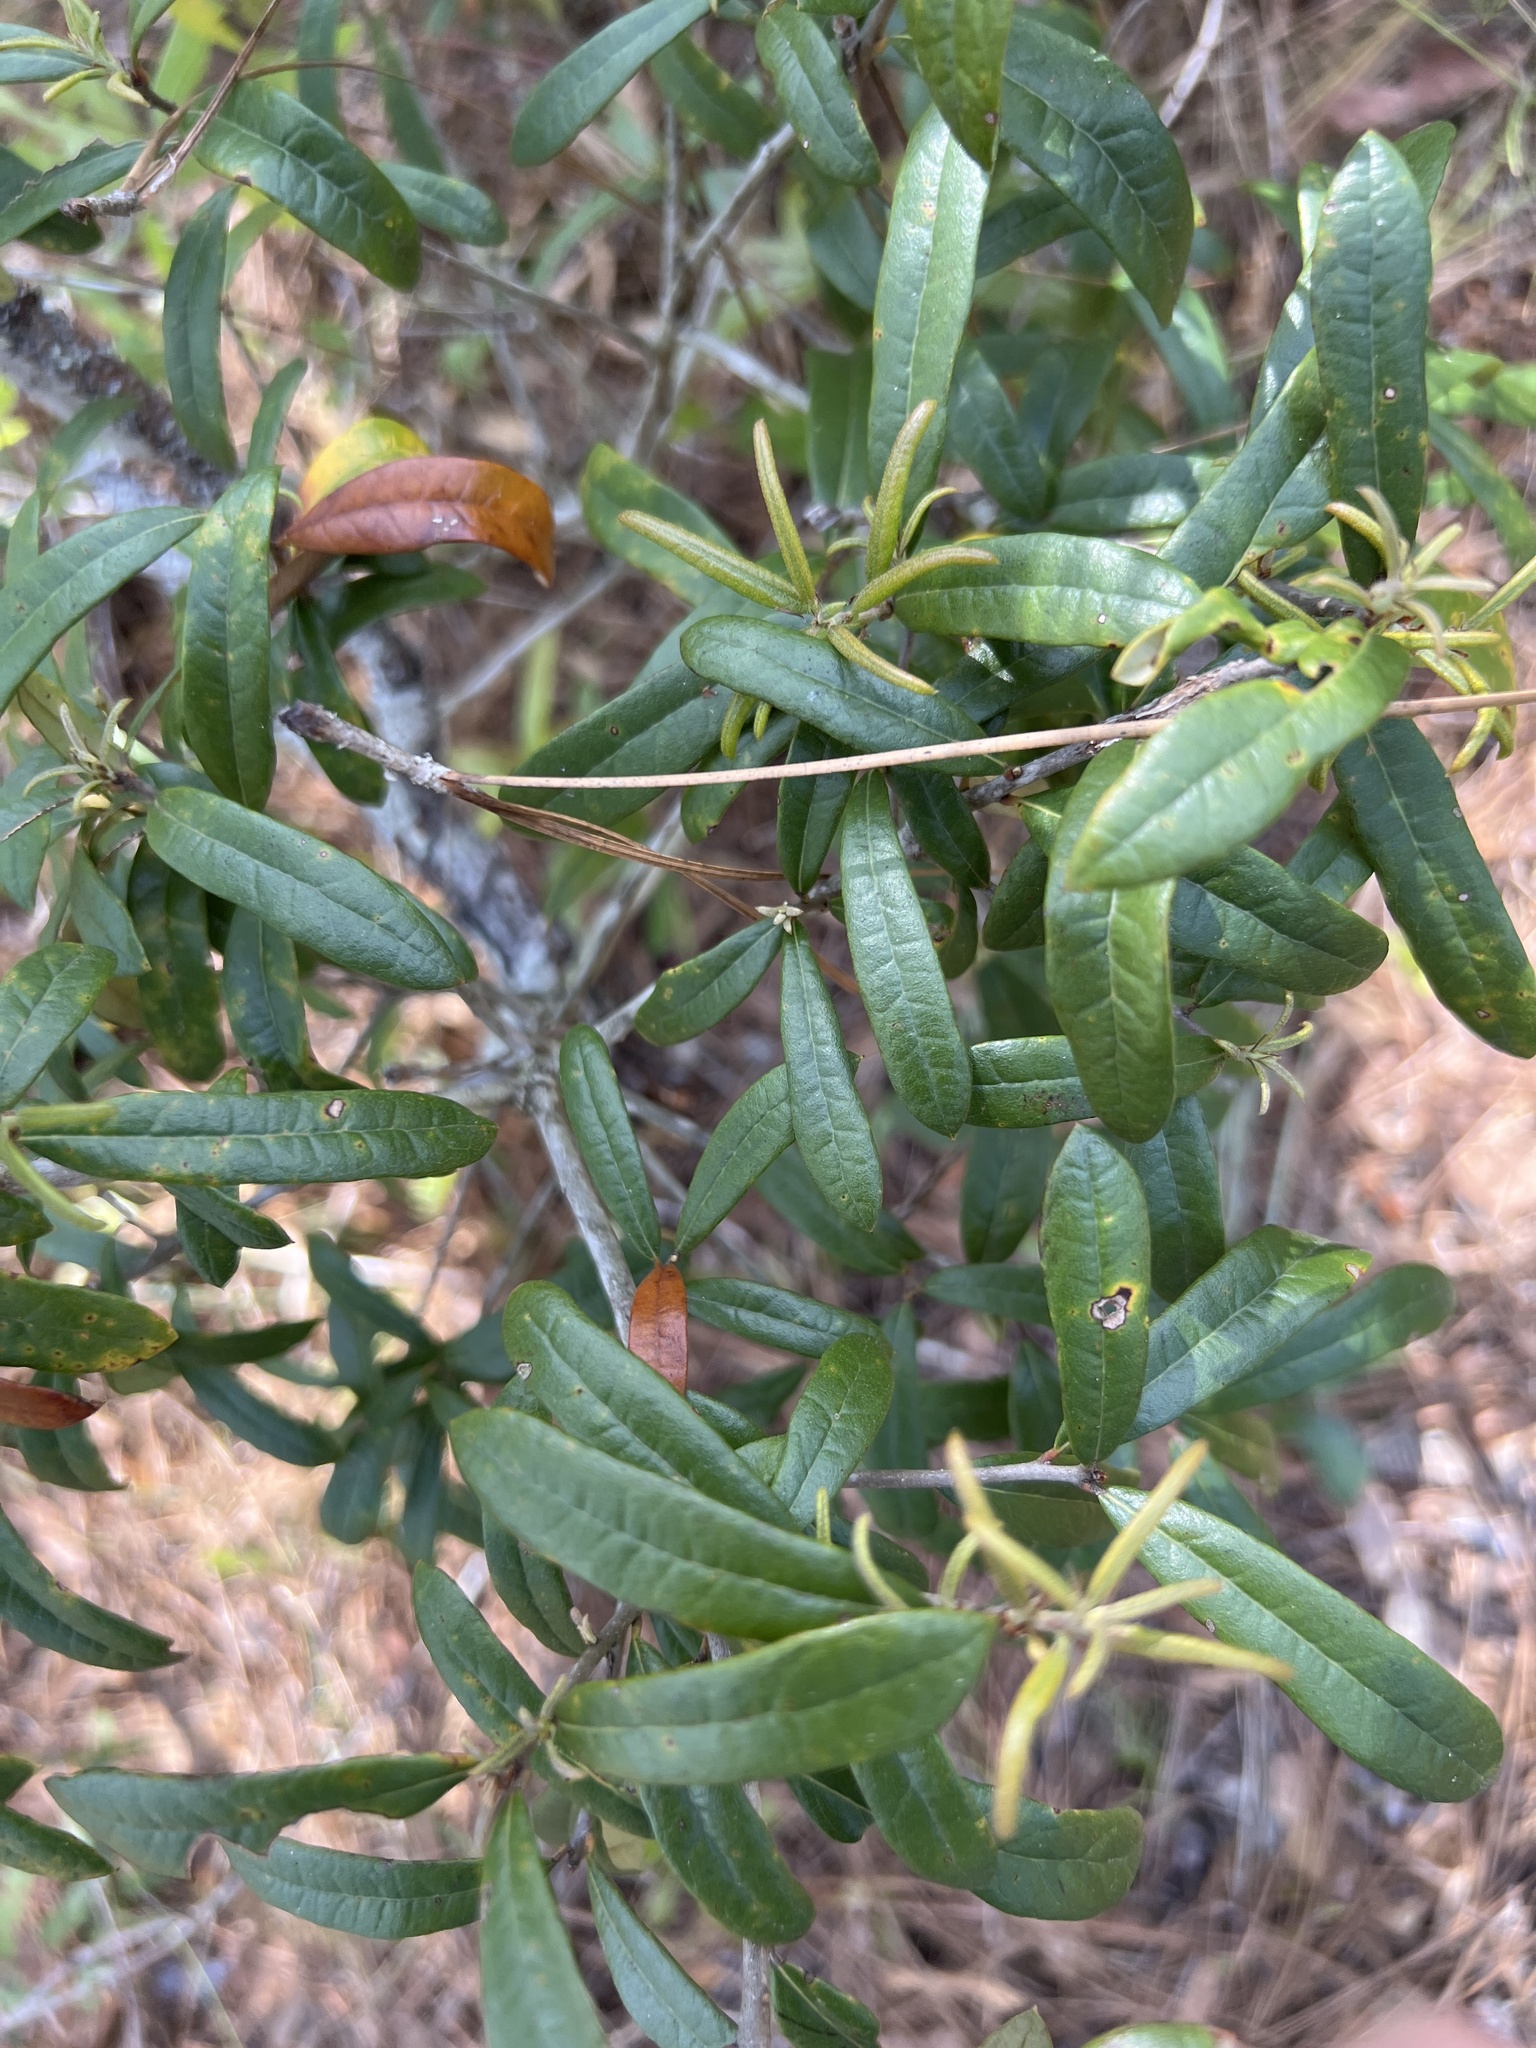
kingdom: Plantae
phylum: Tracheophyta
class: Magnoliopsida
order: Fagales
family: Fagaceae
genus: Quercus
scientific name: Quercus geminata
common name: Sand live oak
